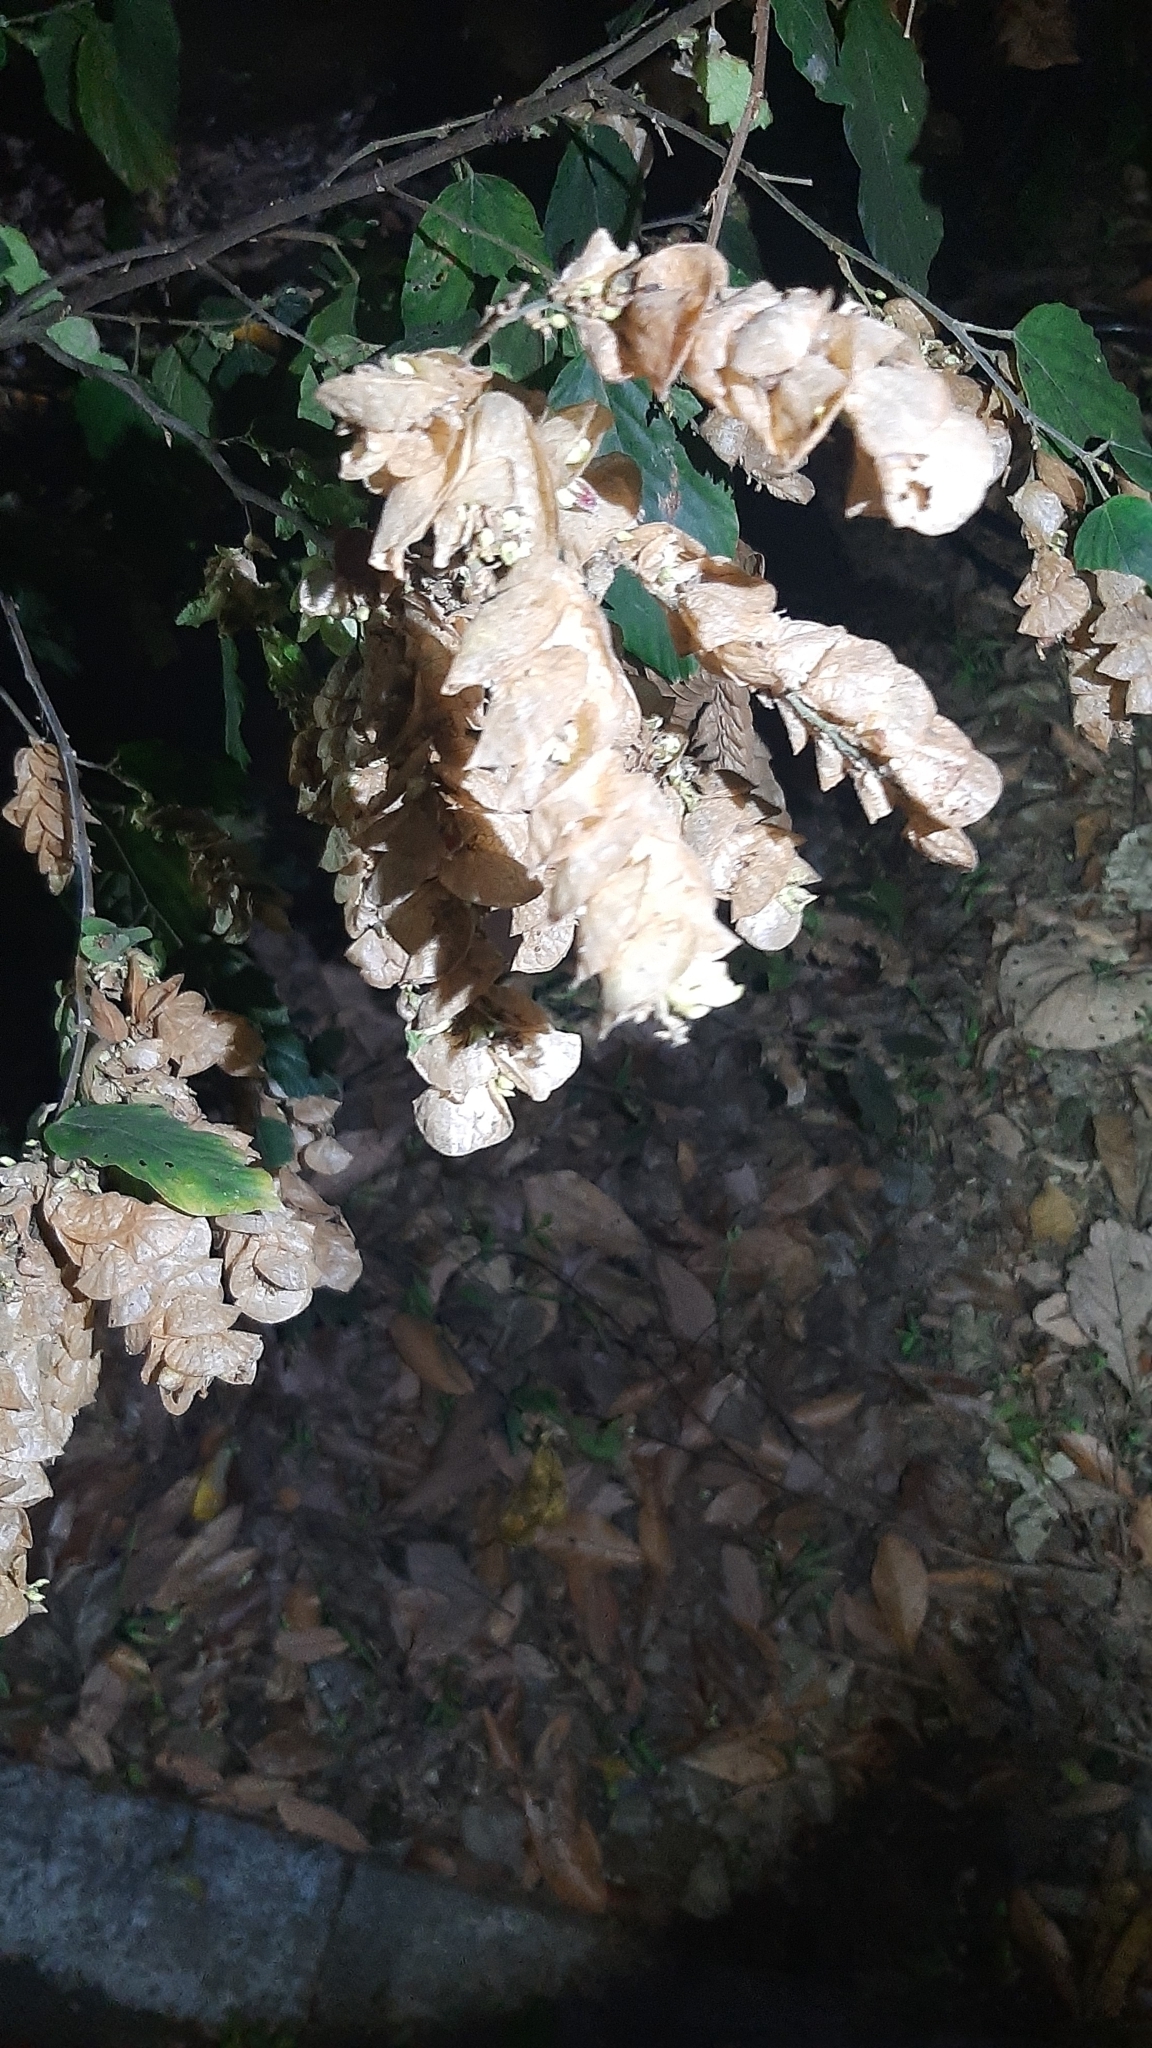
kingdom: Plantae
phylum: Tracheophyta
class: Magnoliopsida
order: Fabales
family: Fabaceae
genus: Flemingia
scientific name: Flemingia strobilifera
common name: Wild hops
